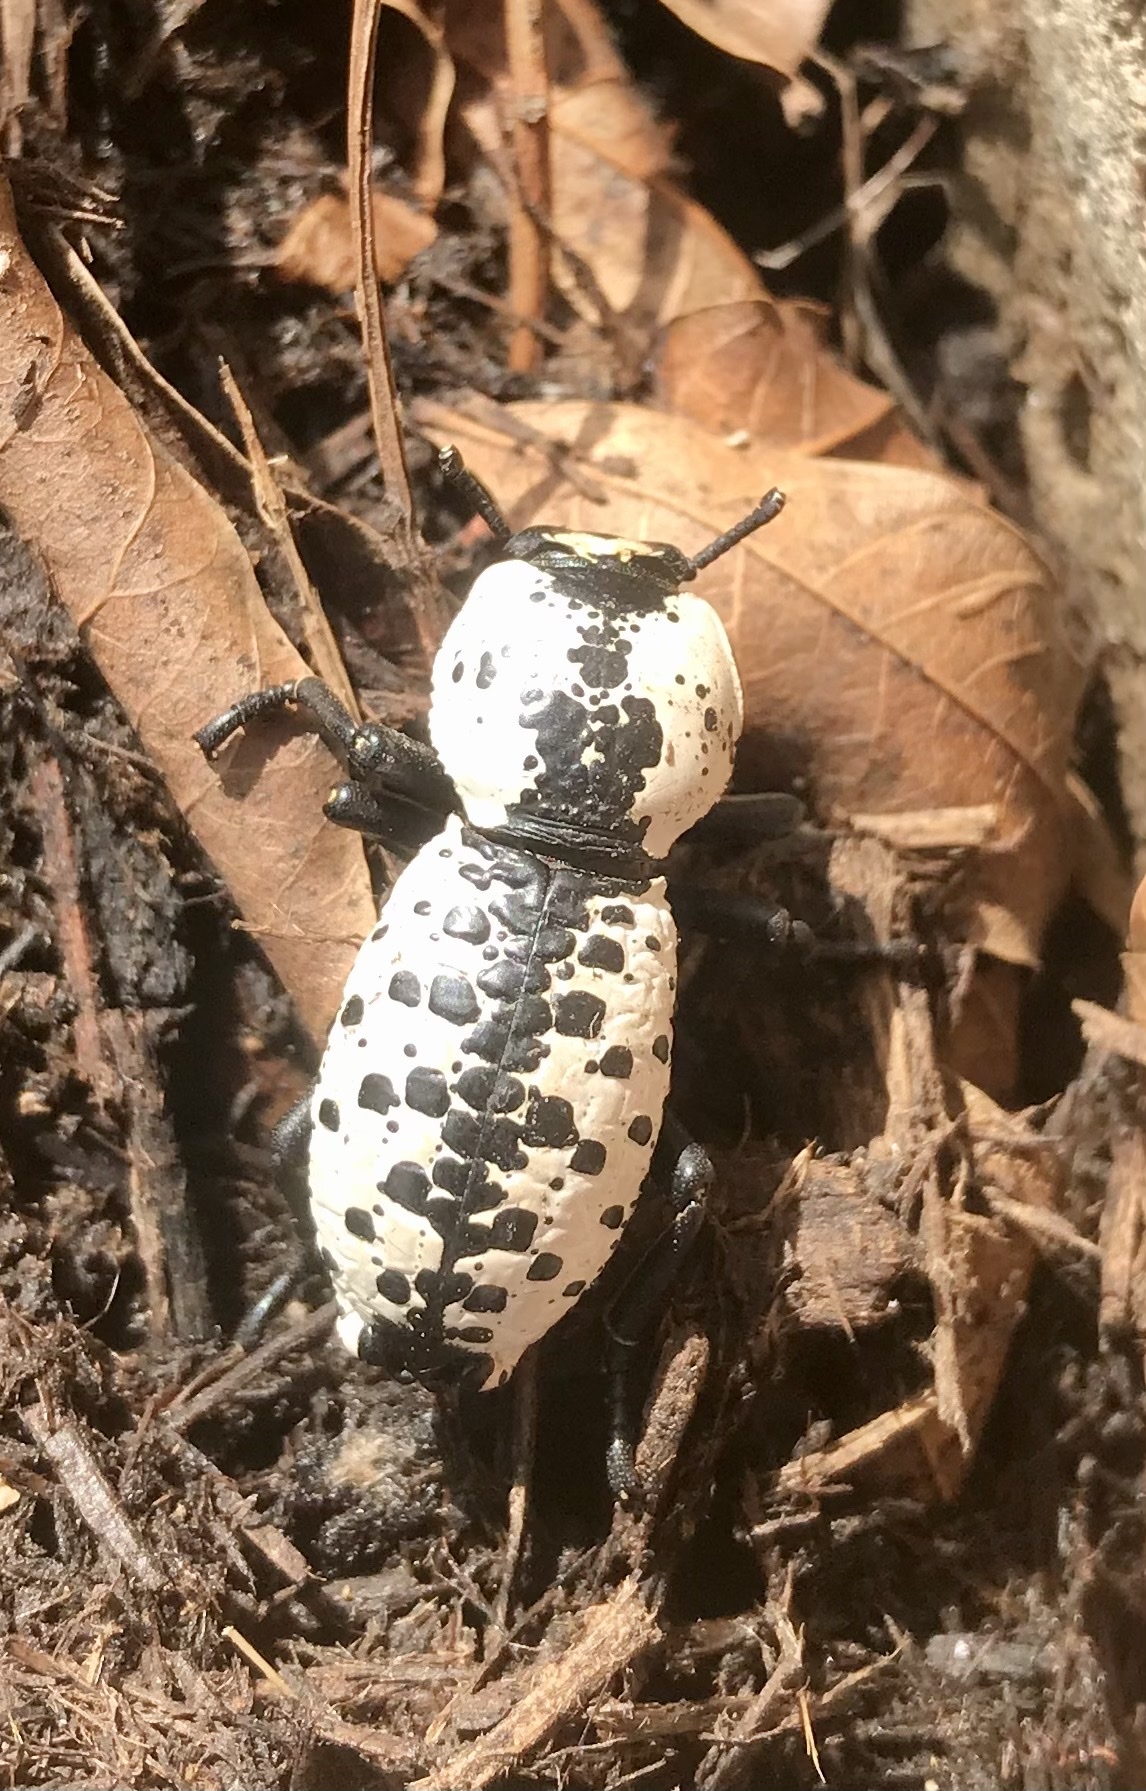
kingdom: Animalia
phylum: Arthropoda
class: Insecta
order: Coleoptera
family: Zopheridae
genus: Zopherus
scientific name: Zopherus nodulosus
